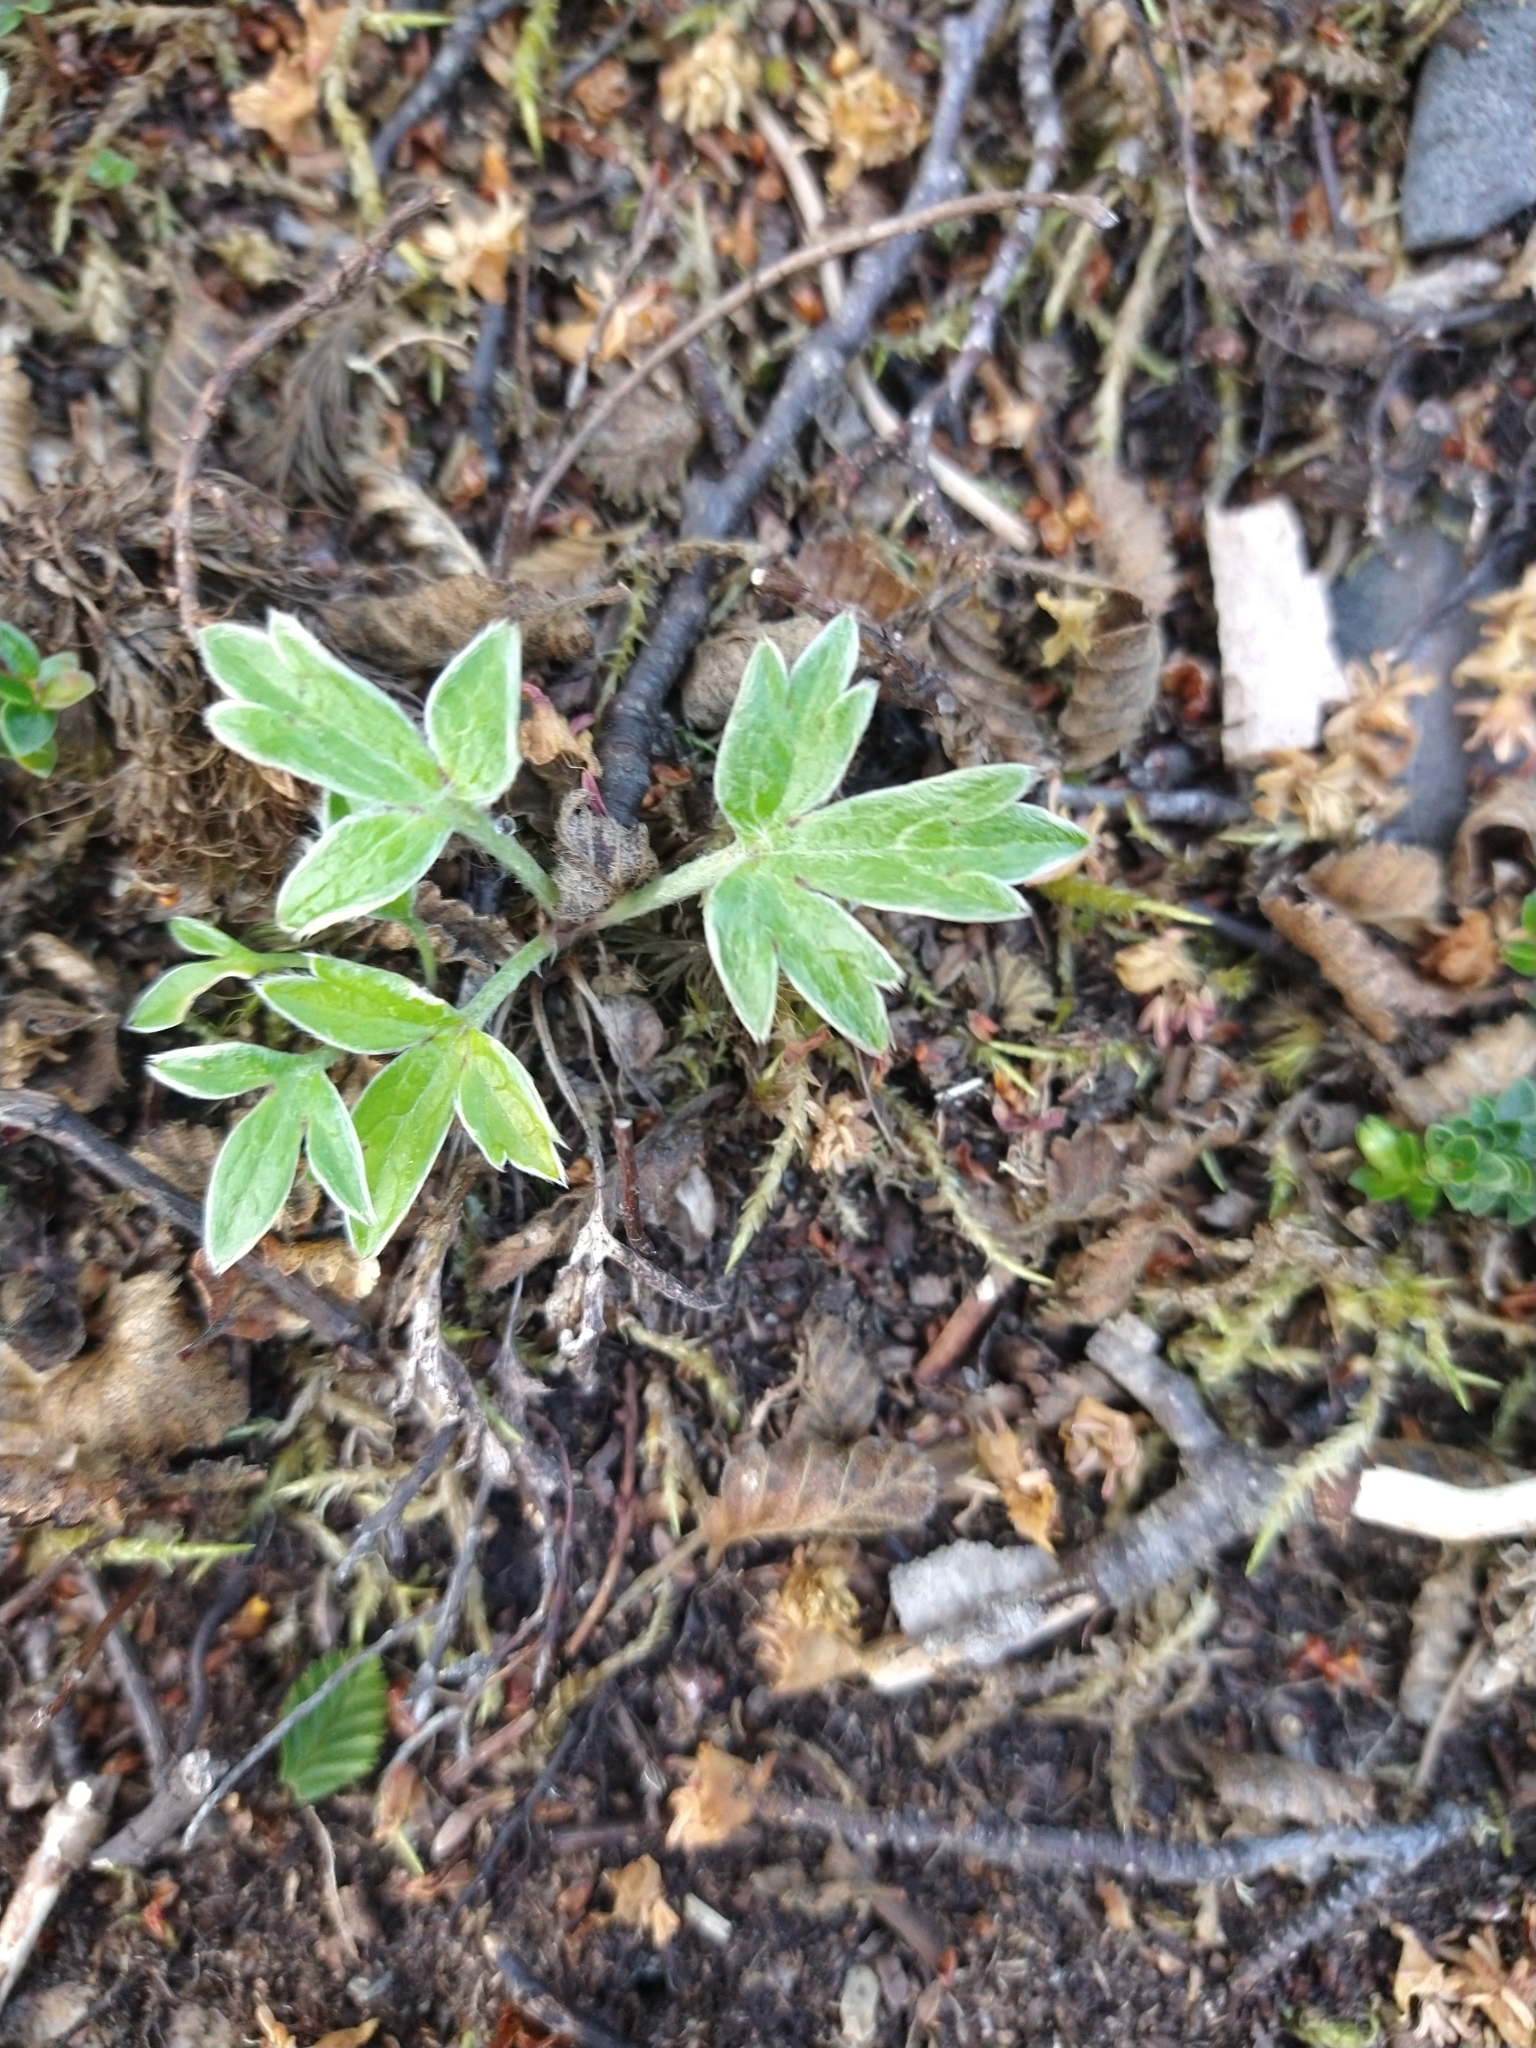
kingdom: Plantae
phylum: Tracheophyta
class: Magnoliopsida
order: Ranunculales
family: Ranunculaceae
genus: Hamadryas
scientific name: Hamadryas magellanica
